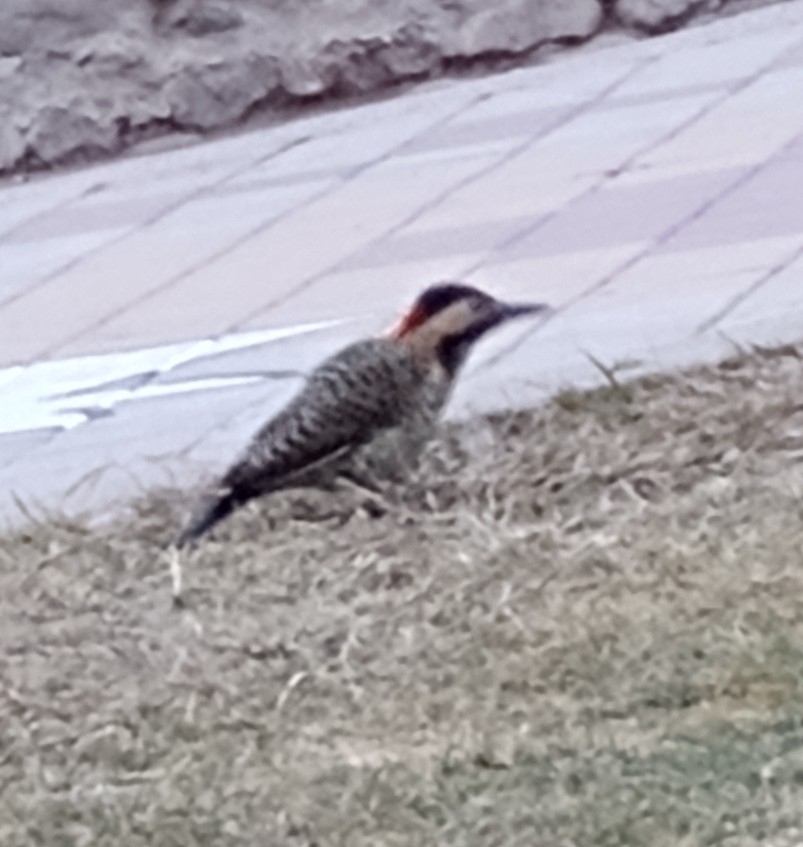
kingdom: Animalia
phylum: Chordata
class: Aves
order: Piciformes
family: Picidae
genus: Colaptes
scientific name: Colaptes melanochloros
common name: Green-barred woodpecker
